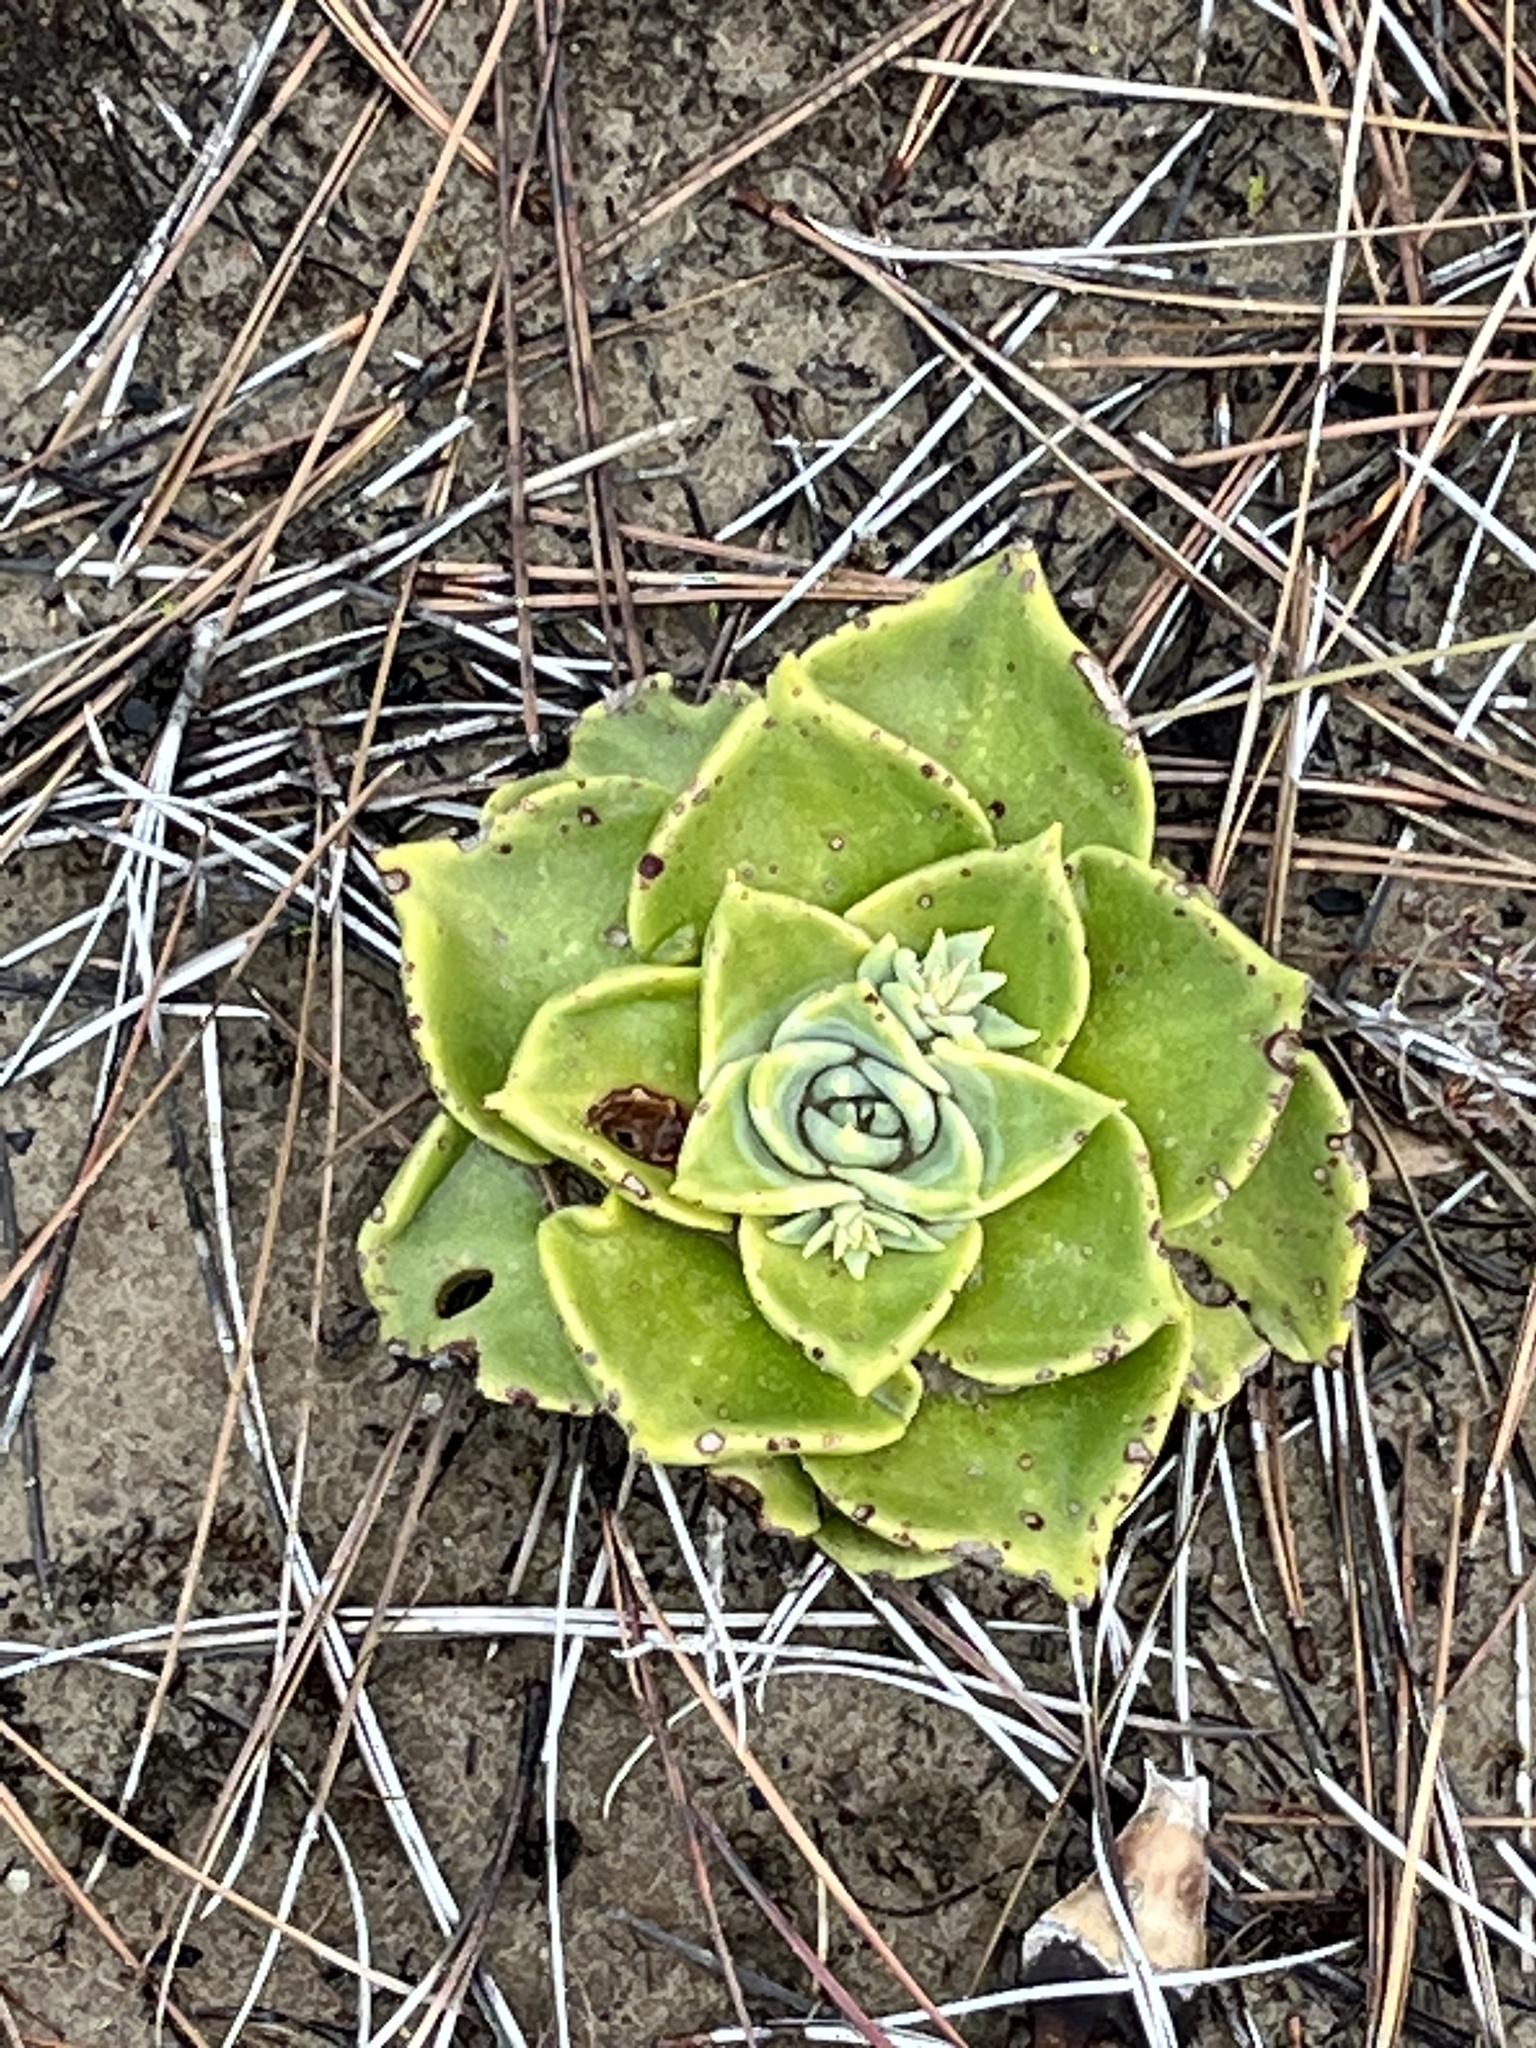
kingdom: Plantae
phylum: Tracheophyta
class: Magnoliopsida
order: Saxifragales
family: Crassulaceae
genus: Dudleya
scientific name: Dudleya cymosa
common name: Canyon dudleya
